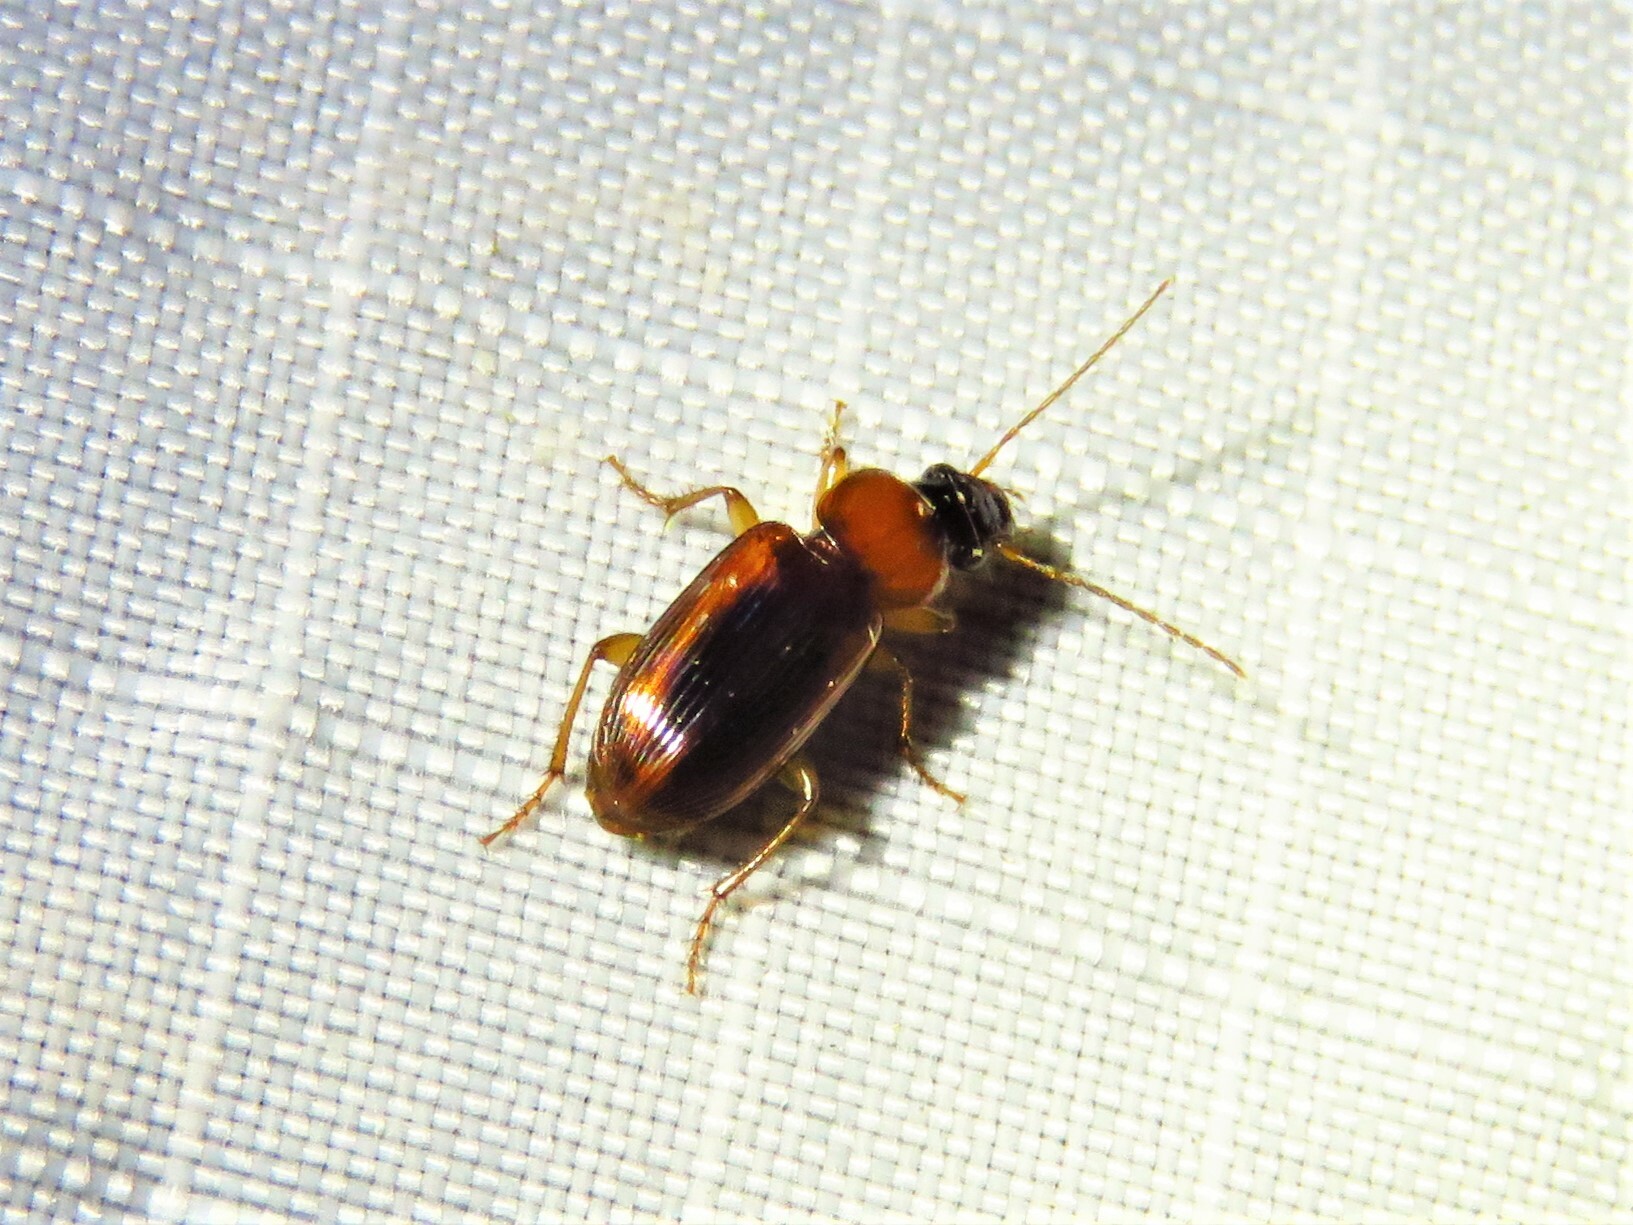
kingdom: Animalia
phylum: Arthropoda
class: Insecta
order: Coleoptera
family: Carabidae
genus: Stenolophus
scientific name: Stenolophus dissimilis
